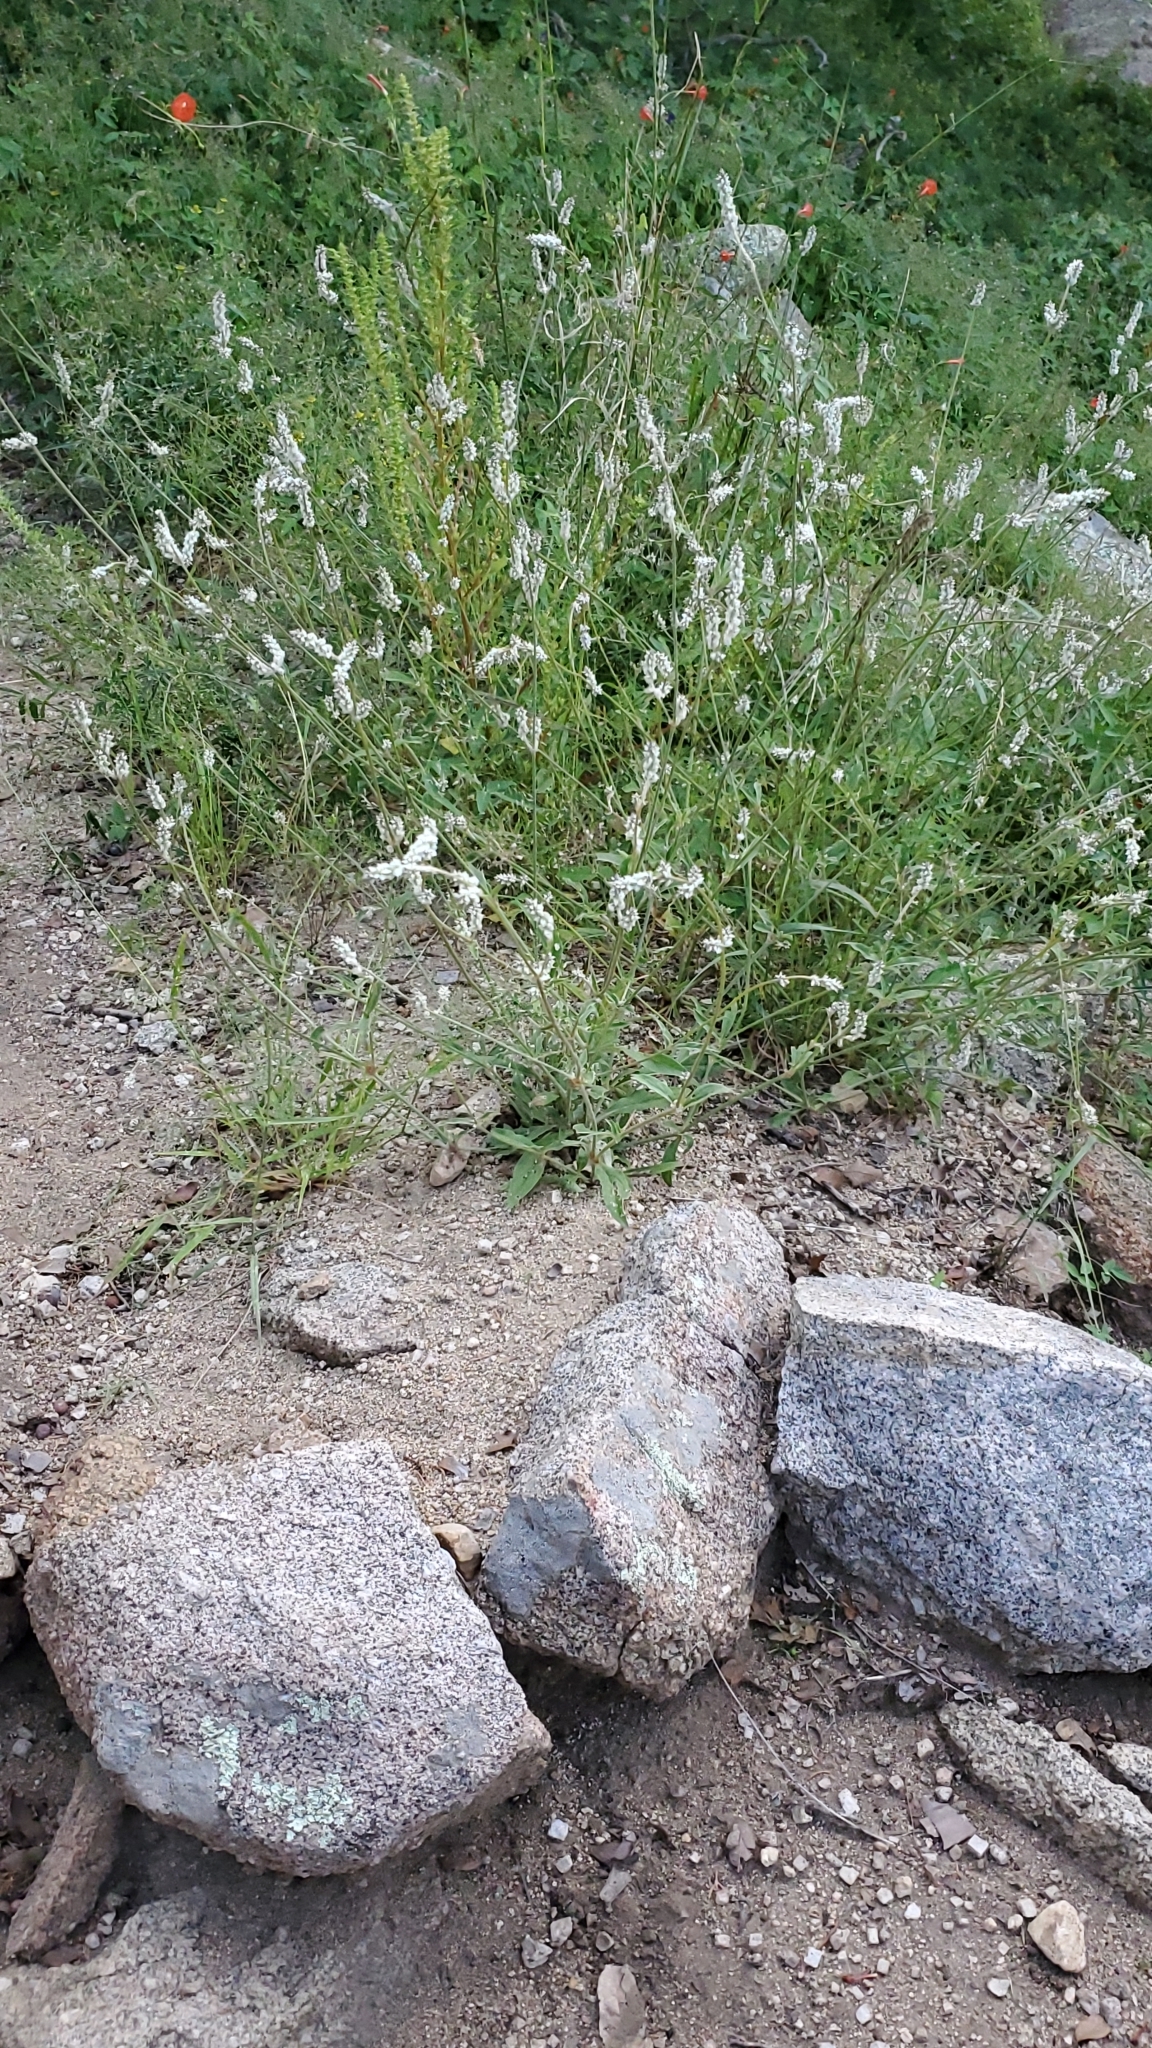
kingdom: Plantae
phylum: Tracheophyta
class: Magnoliopsida
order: Caryophyllales
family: Amaranthaceae
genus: Froelichia
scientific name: Froelichia gracilis
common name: Slender cottonweed
